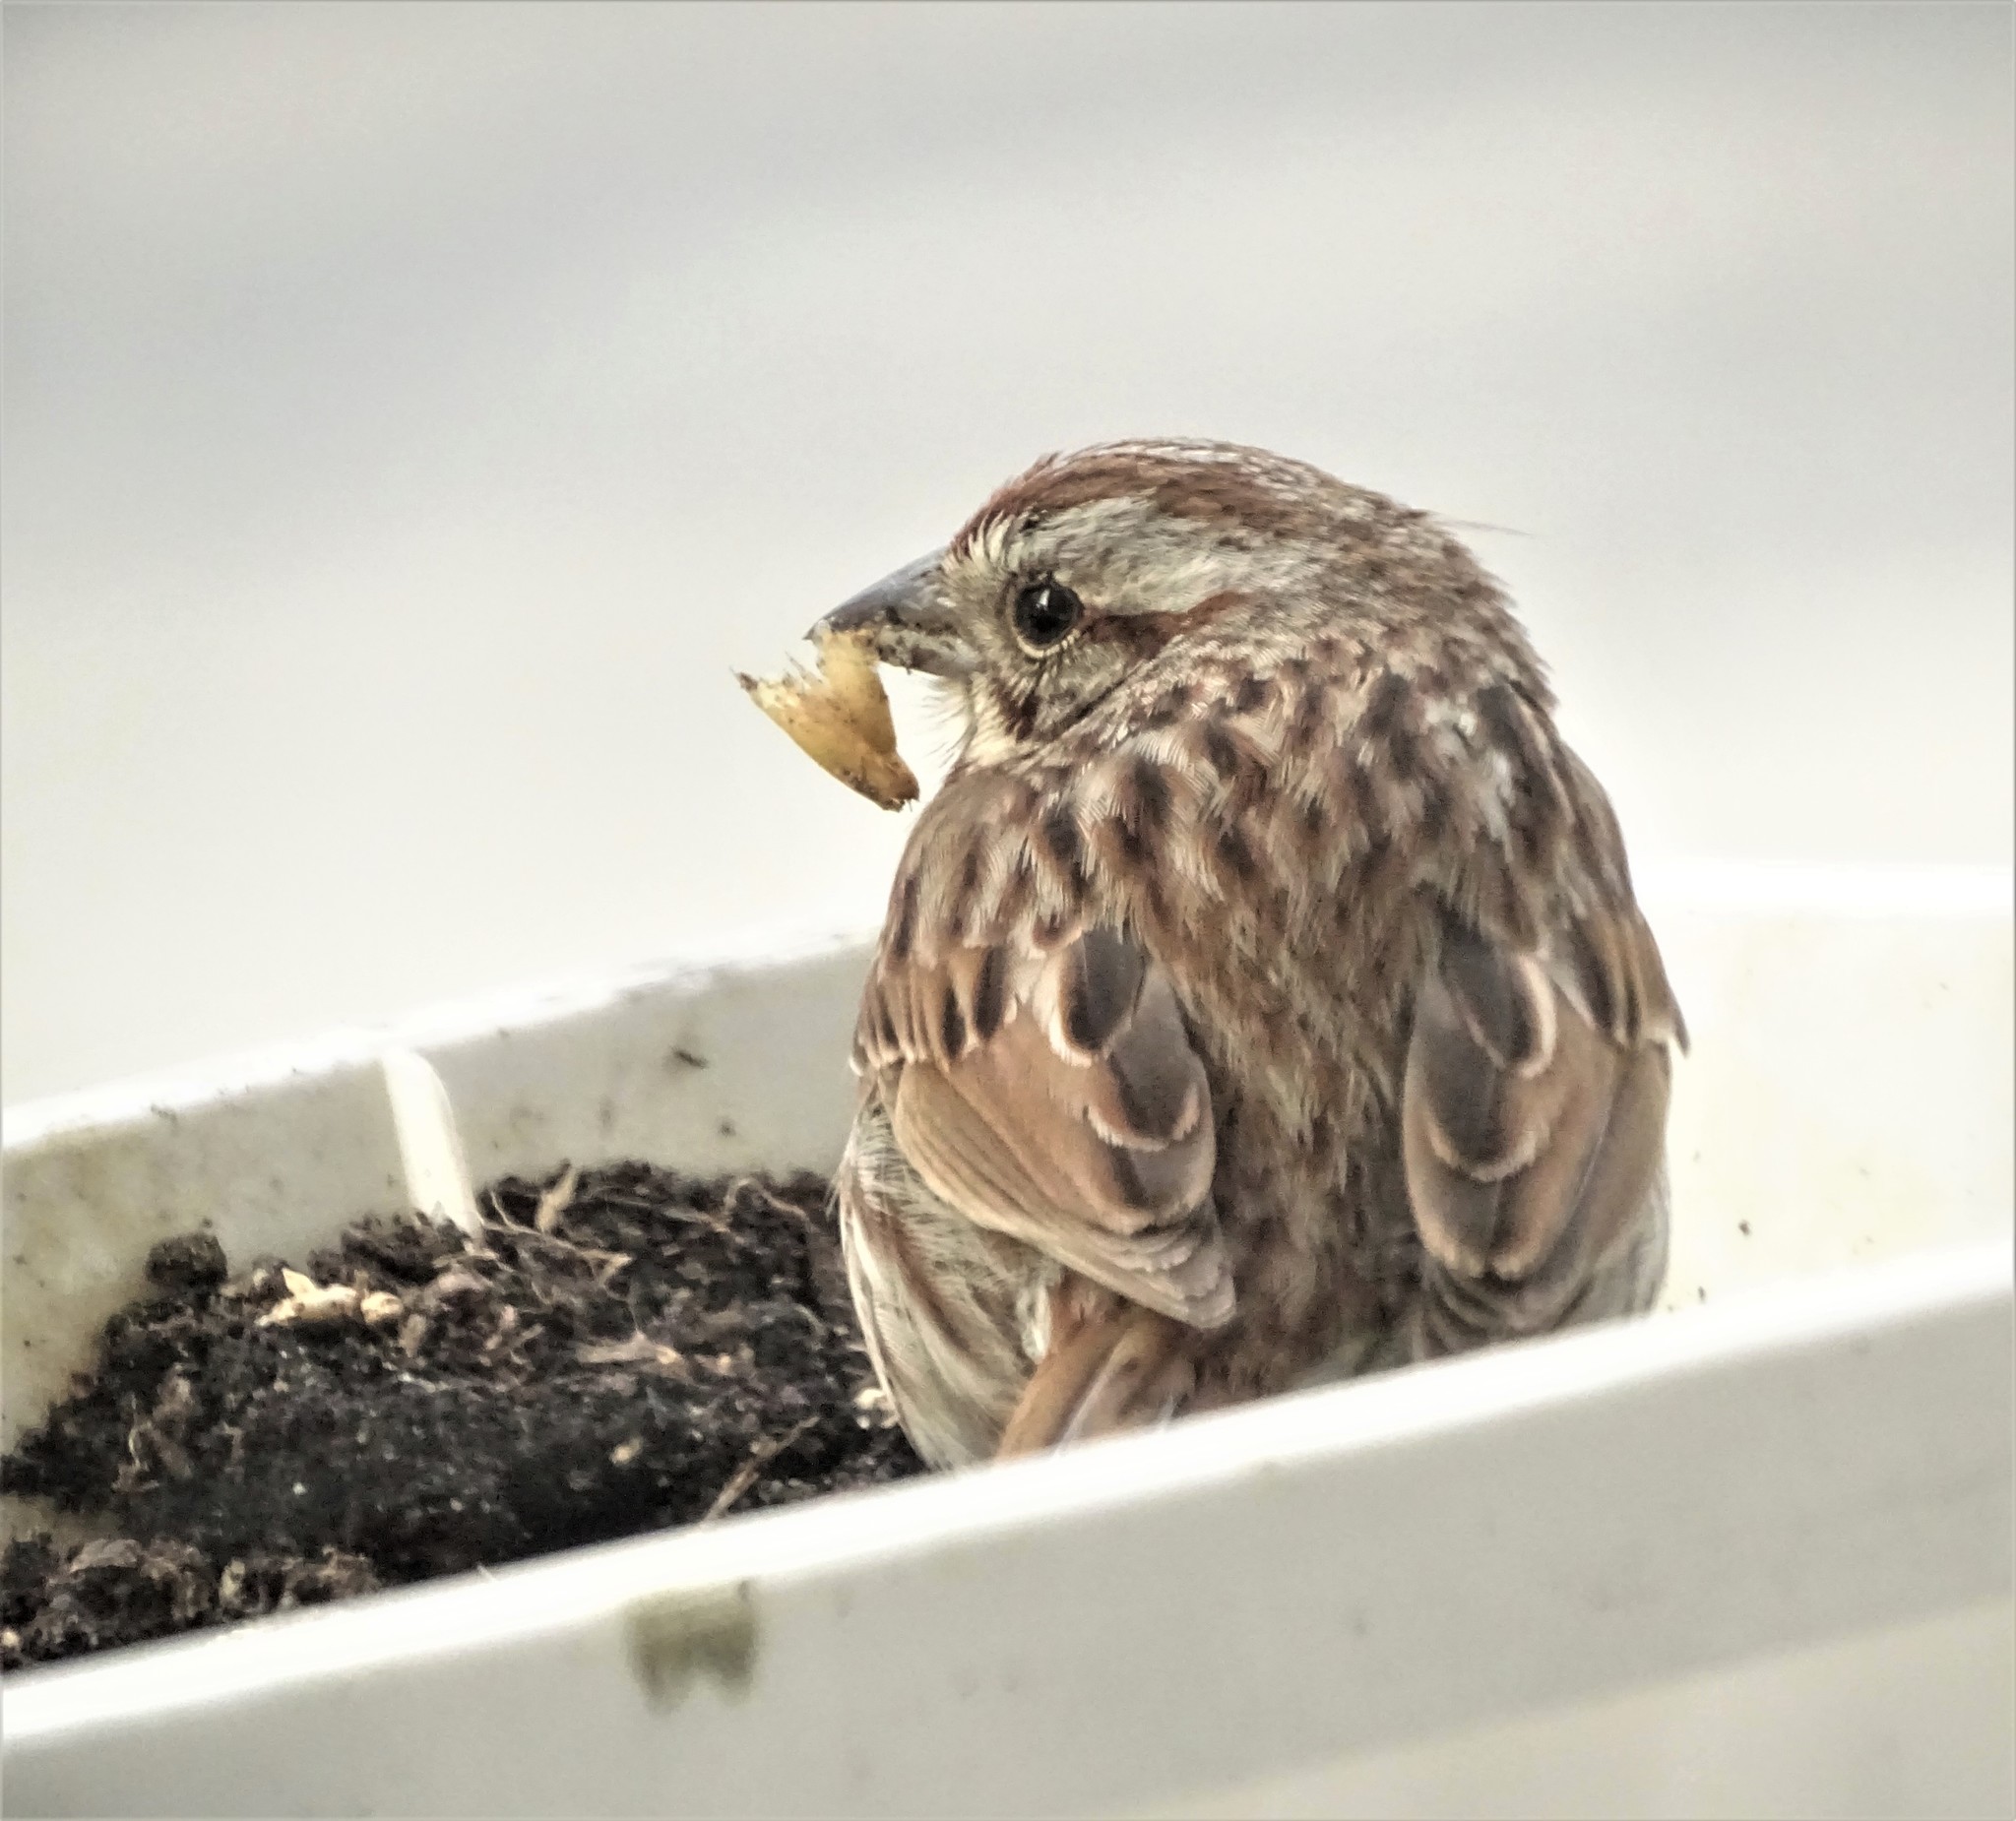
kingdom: Animalia
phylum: Chordata
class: Aves
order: Passeriformes
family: Passerellidae
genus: Melospiza
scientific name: Melospiza melodia
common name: Song sparrow
